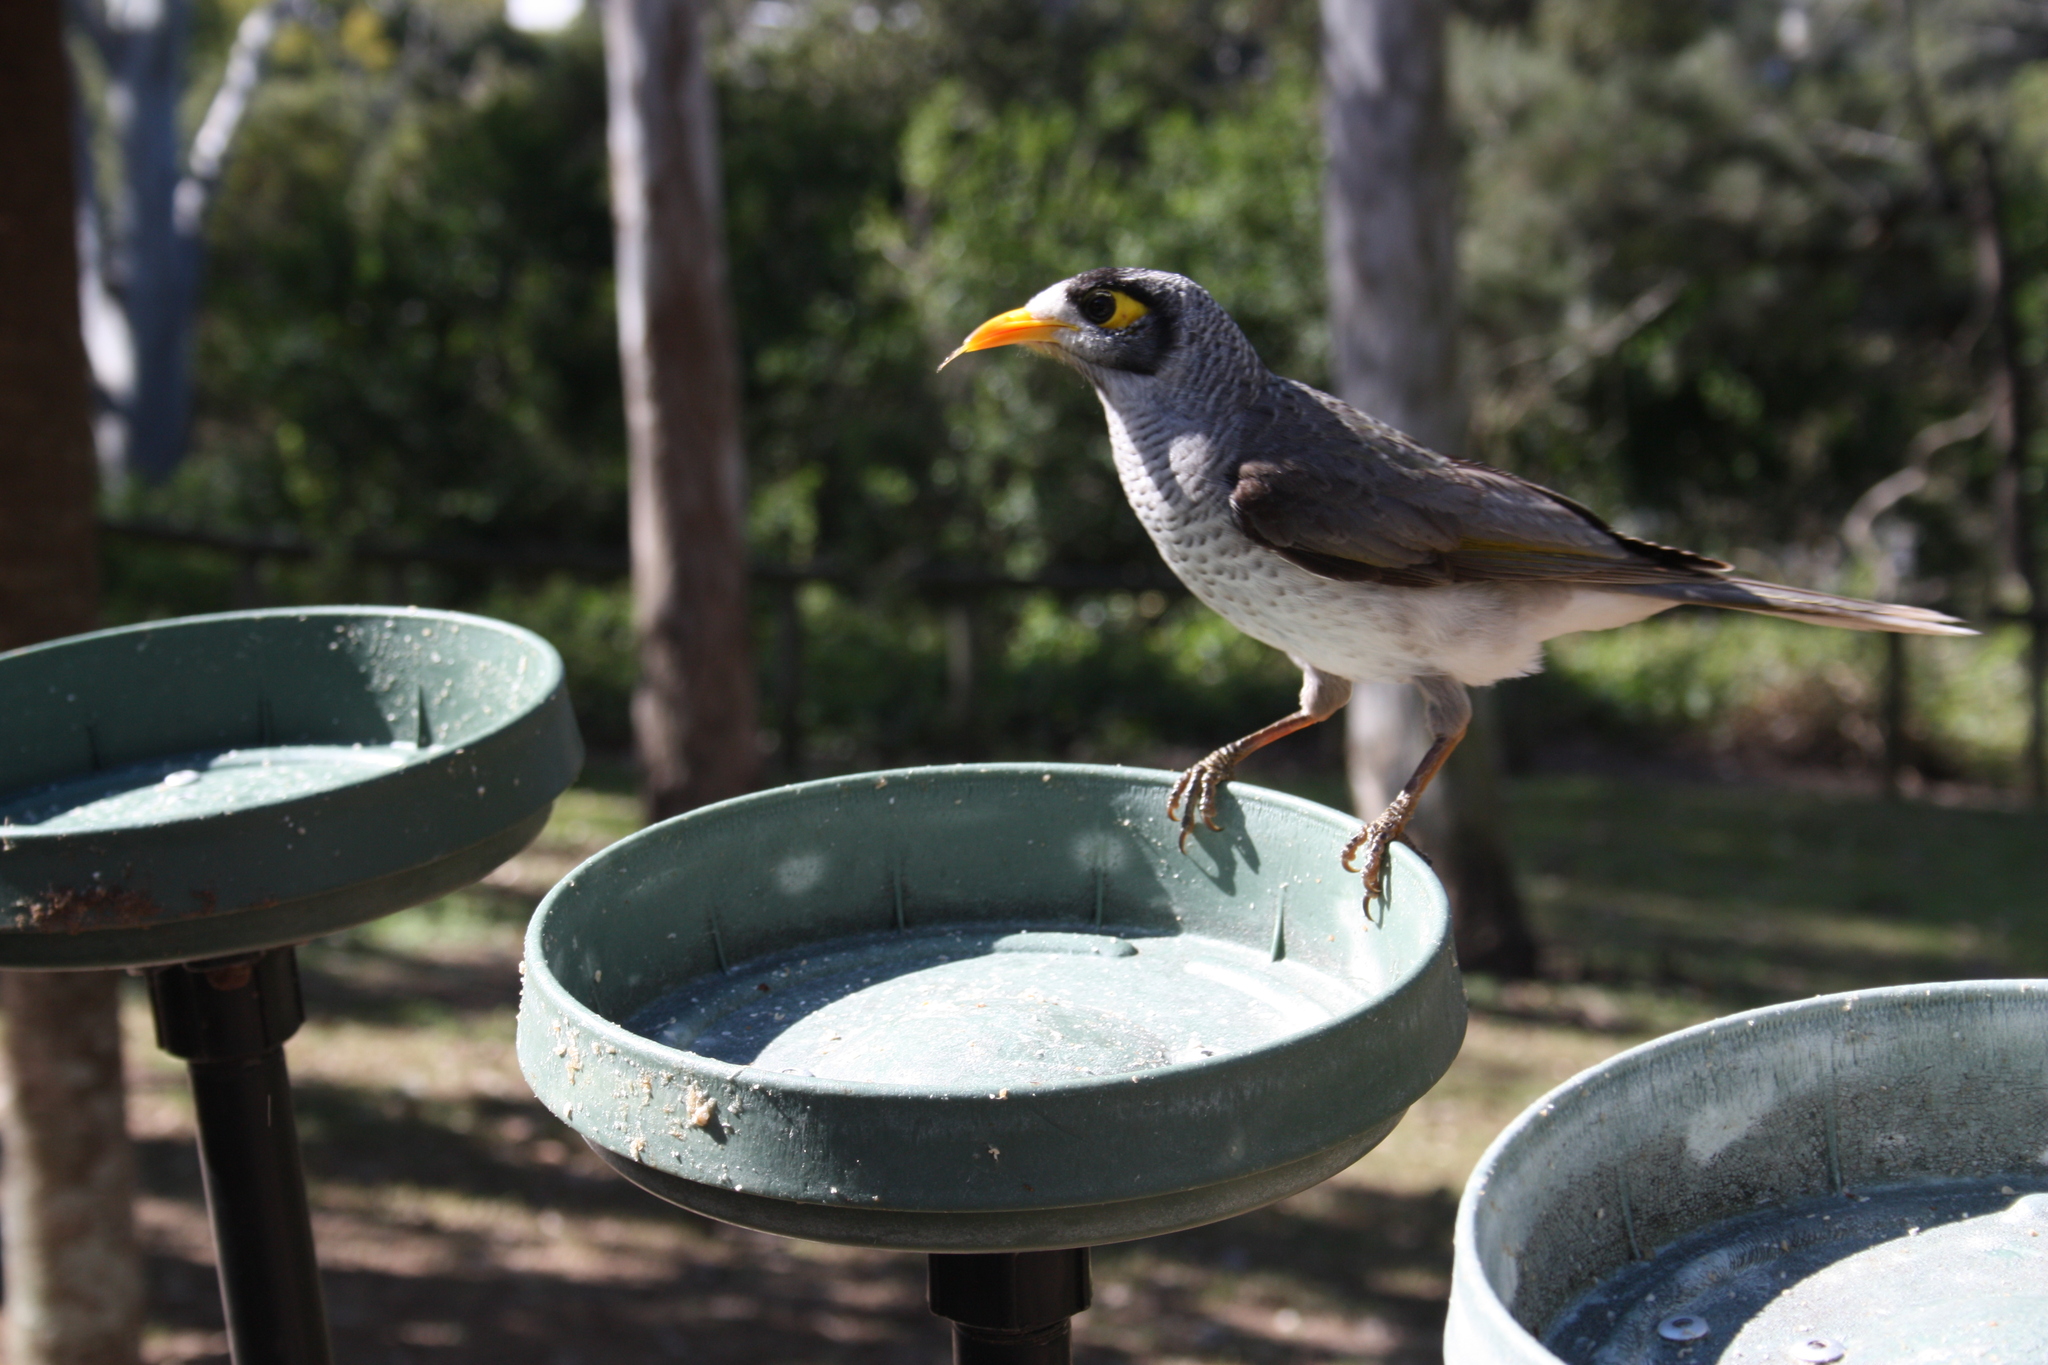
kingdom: Animalia
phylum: Chordata
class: Aves
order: Passeriformes
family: Meliphagidae
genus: Manorina
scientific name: Manorina melanocephala
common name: Noisy miner
